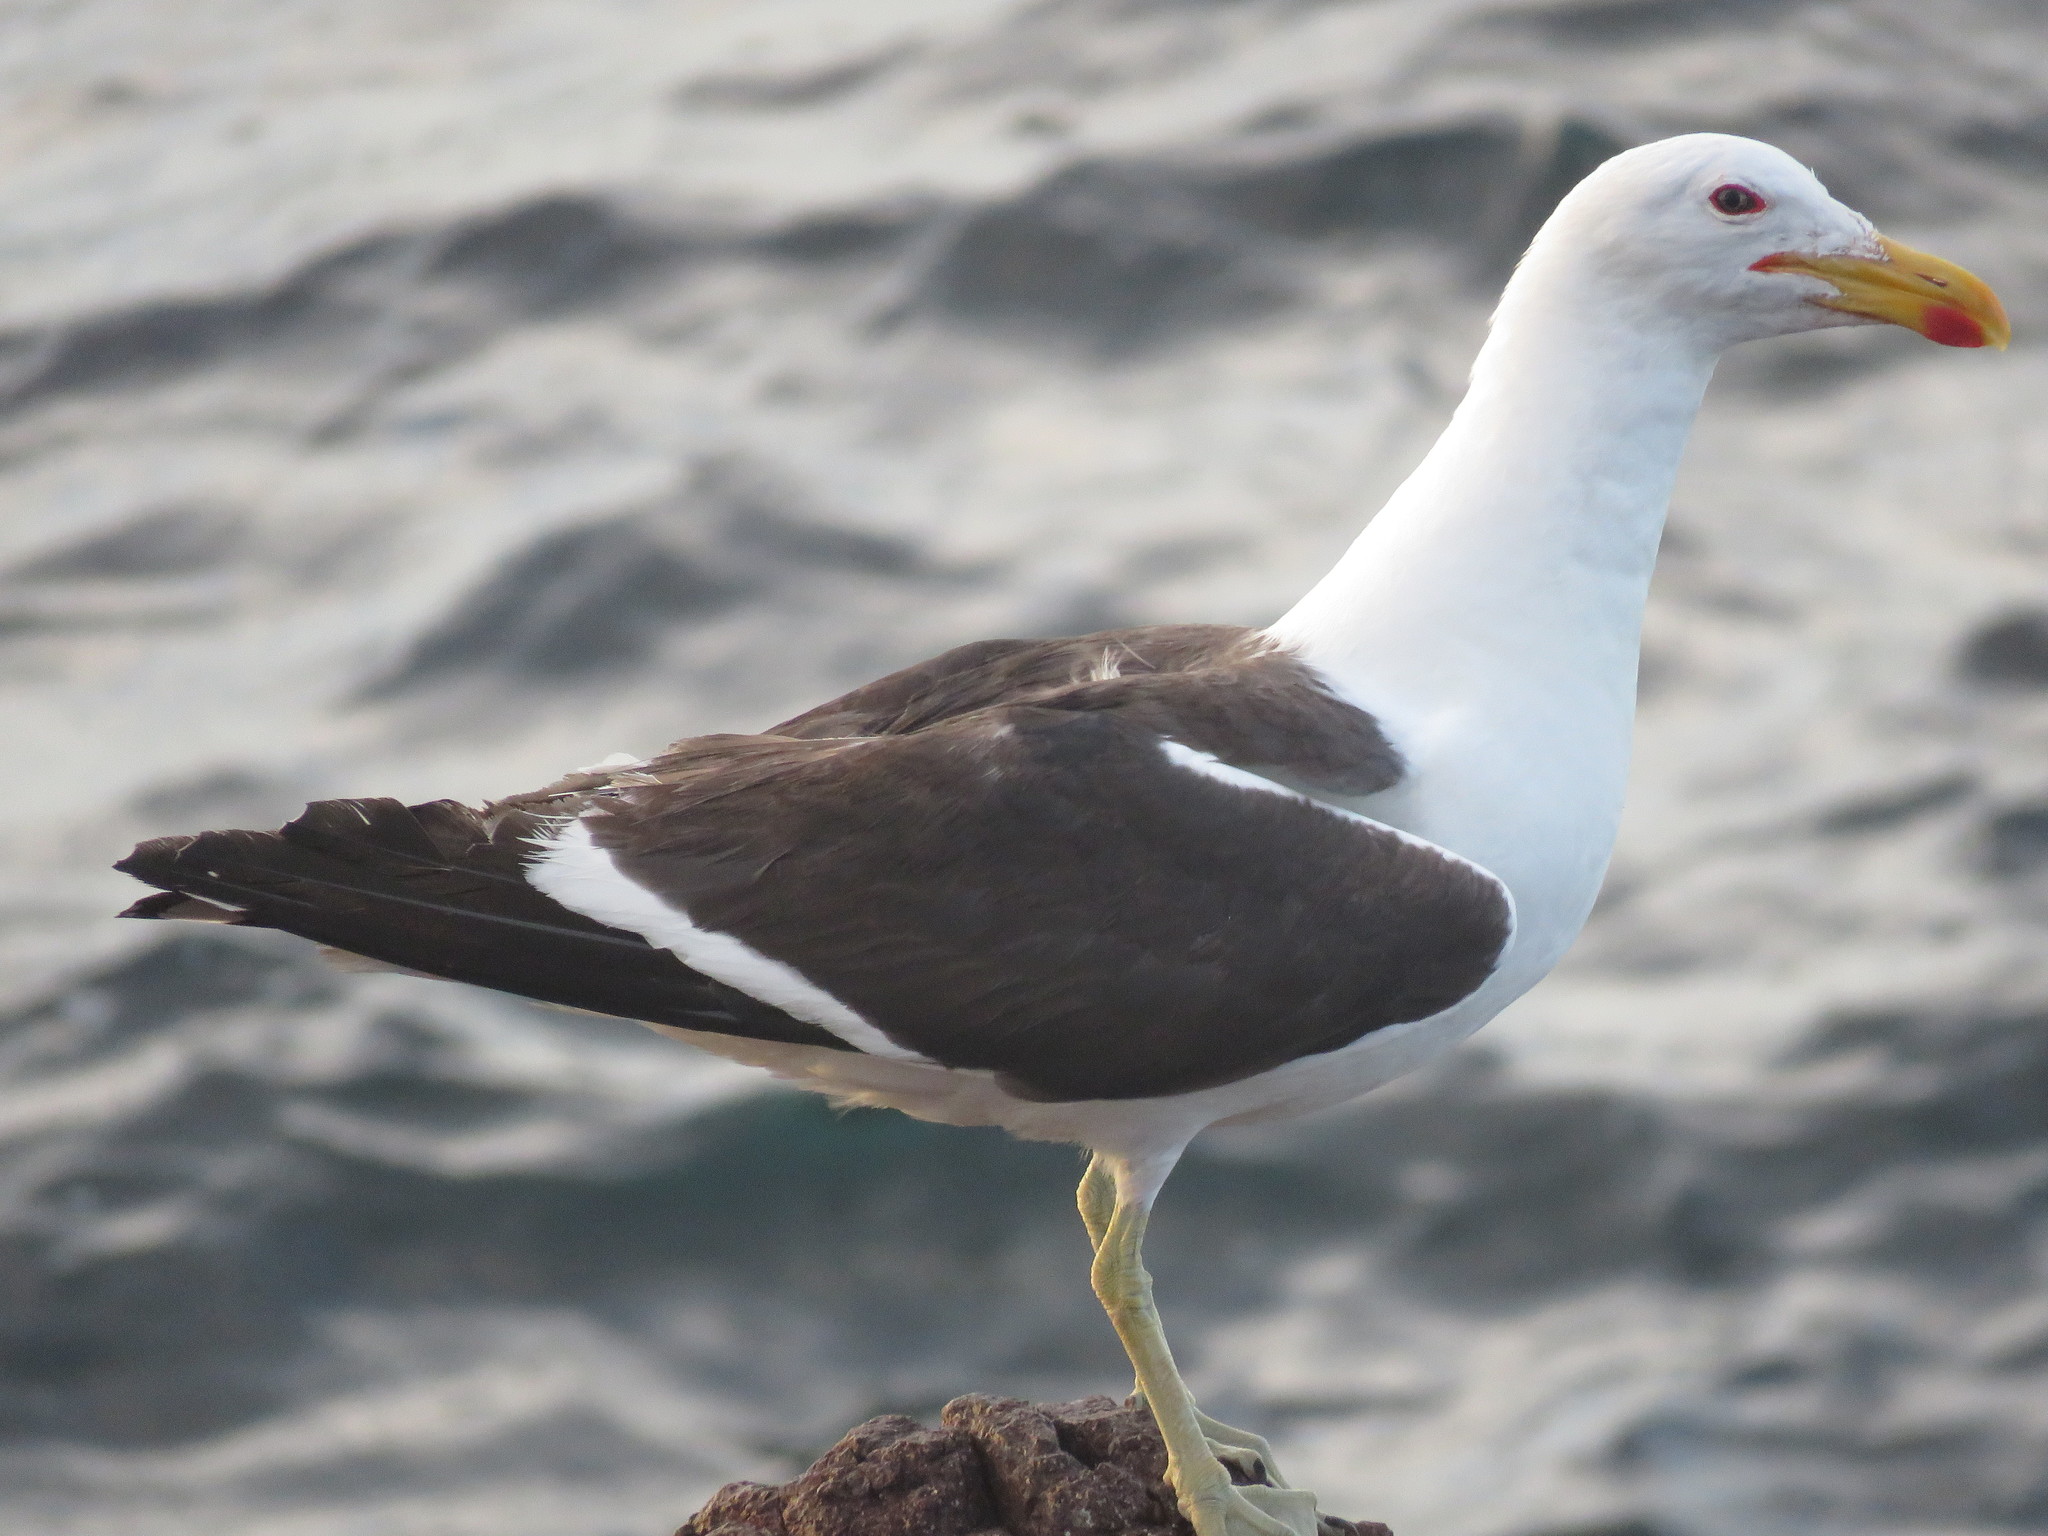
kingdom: Animalia
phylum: Chordata
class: Aves
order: Charadriiformes
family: Laridae
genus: Larus
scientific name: Larus dominicanus
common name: Kelp gull
